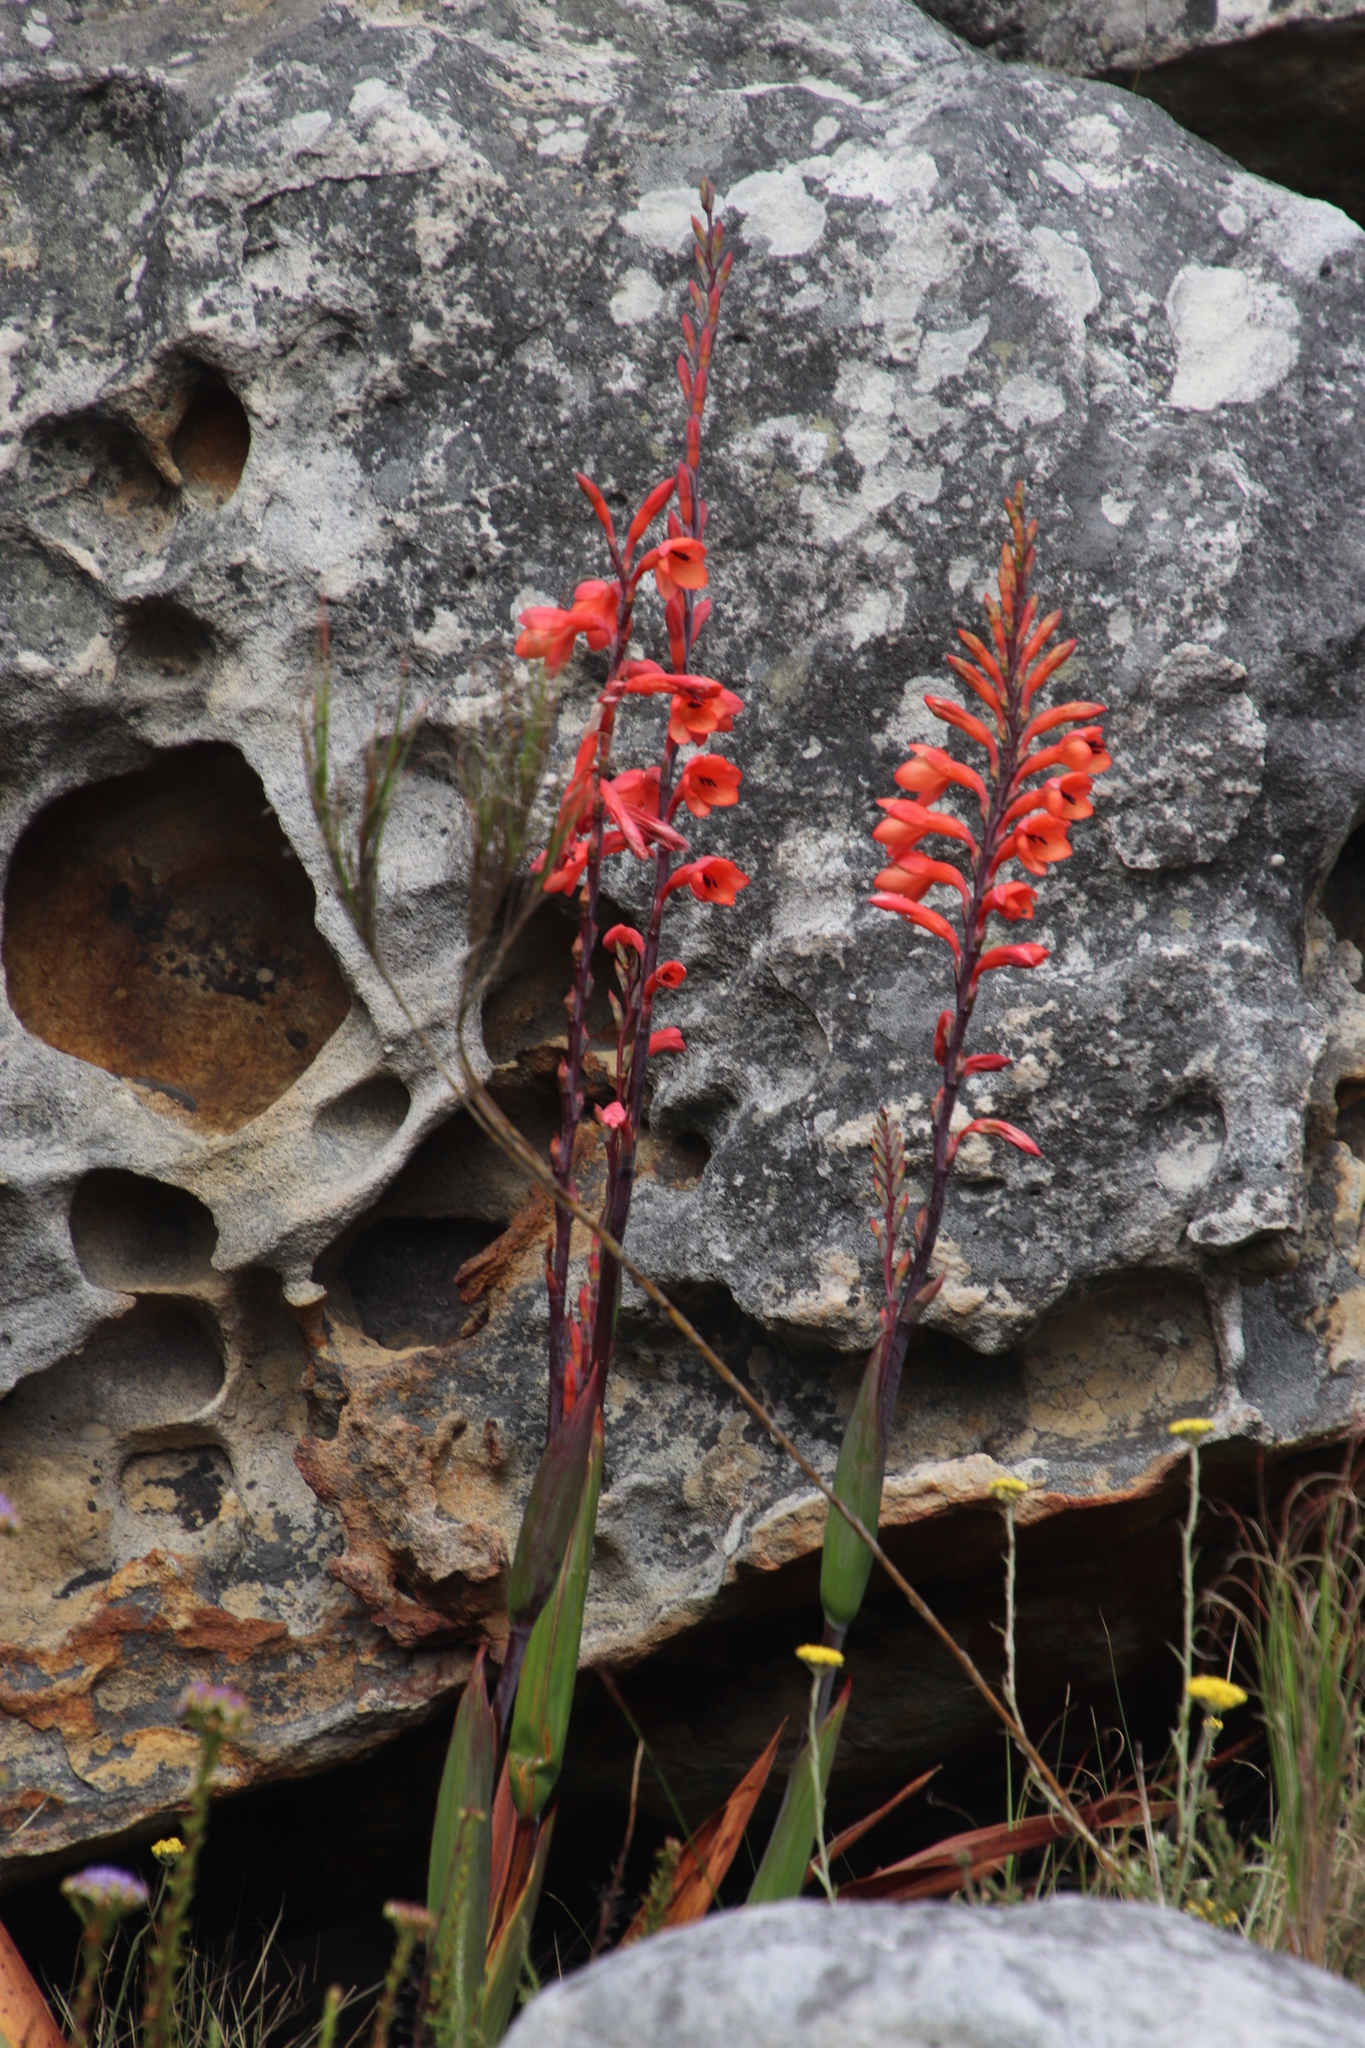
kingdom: Plantae
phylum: Tracheophyta
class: Liliopsida
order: Asparagales
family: Iridaceae
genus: Watsonia
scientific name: Watsonia tabularis
